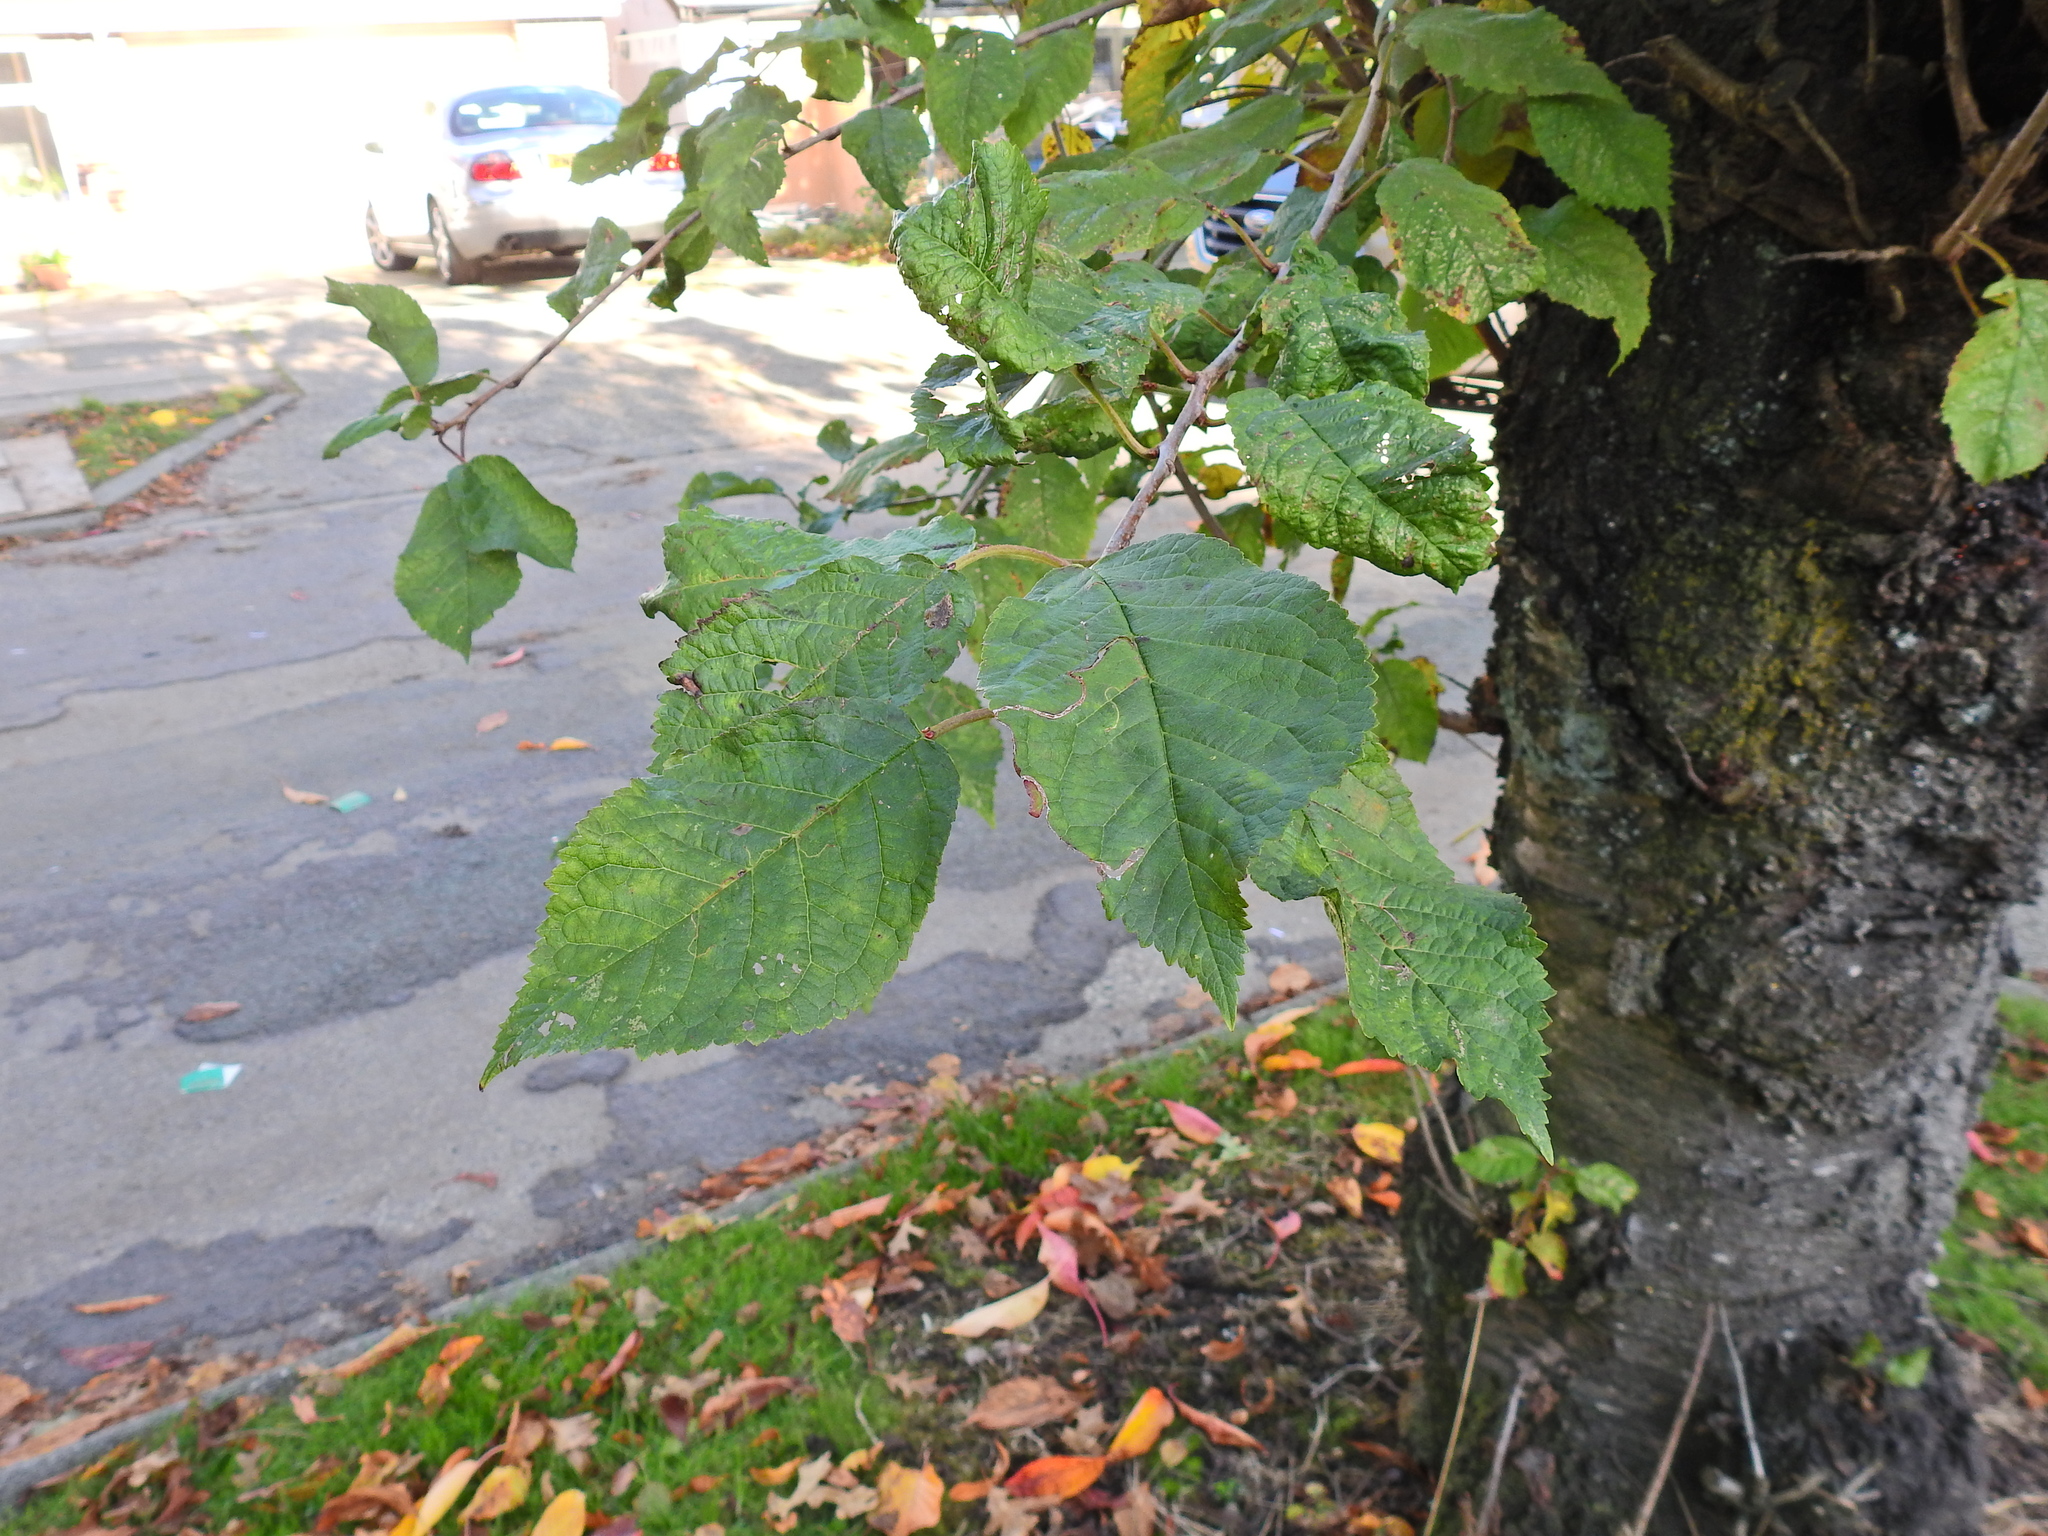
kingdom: Plantae
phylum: Tracheophyta
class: Magnoliopsida
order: Rosales
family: Rosaceae
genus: Prunus
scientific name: Prunus avium
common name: Sweet cherry
